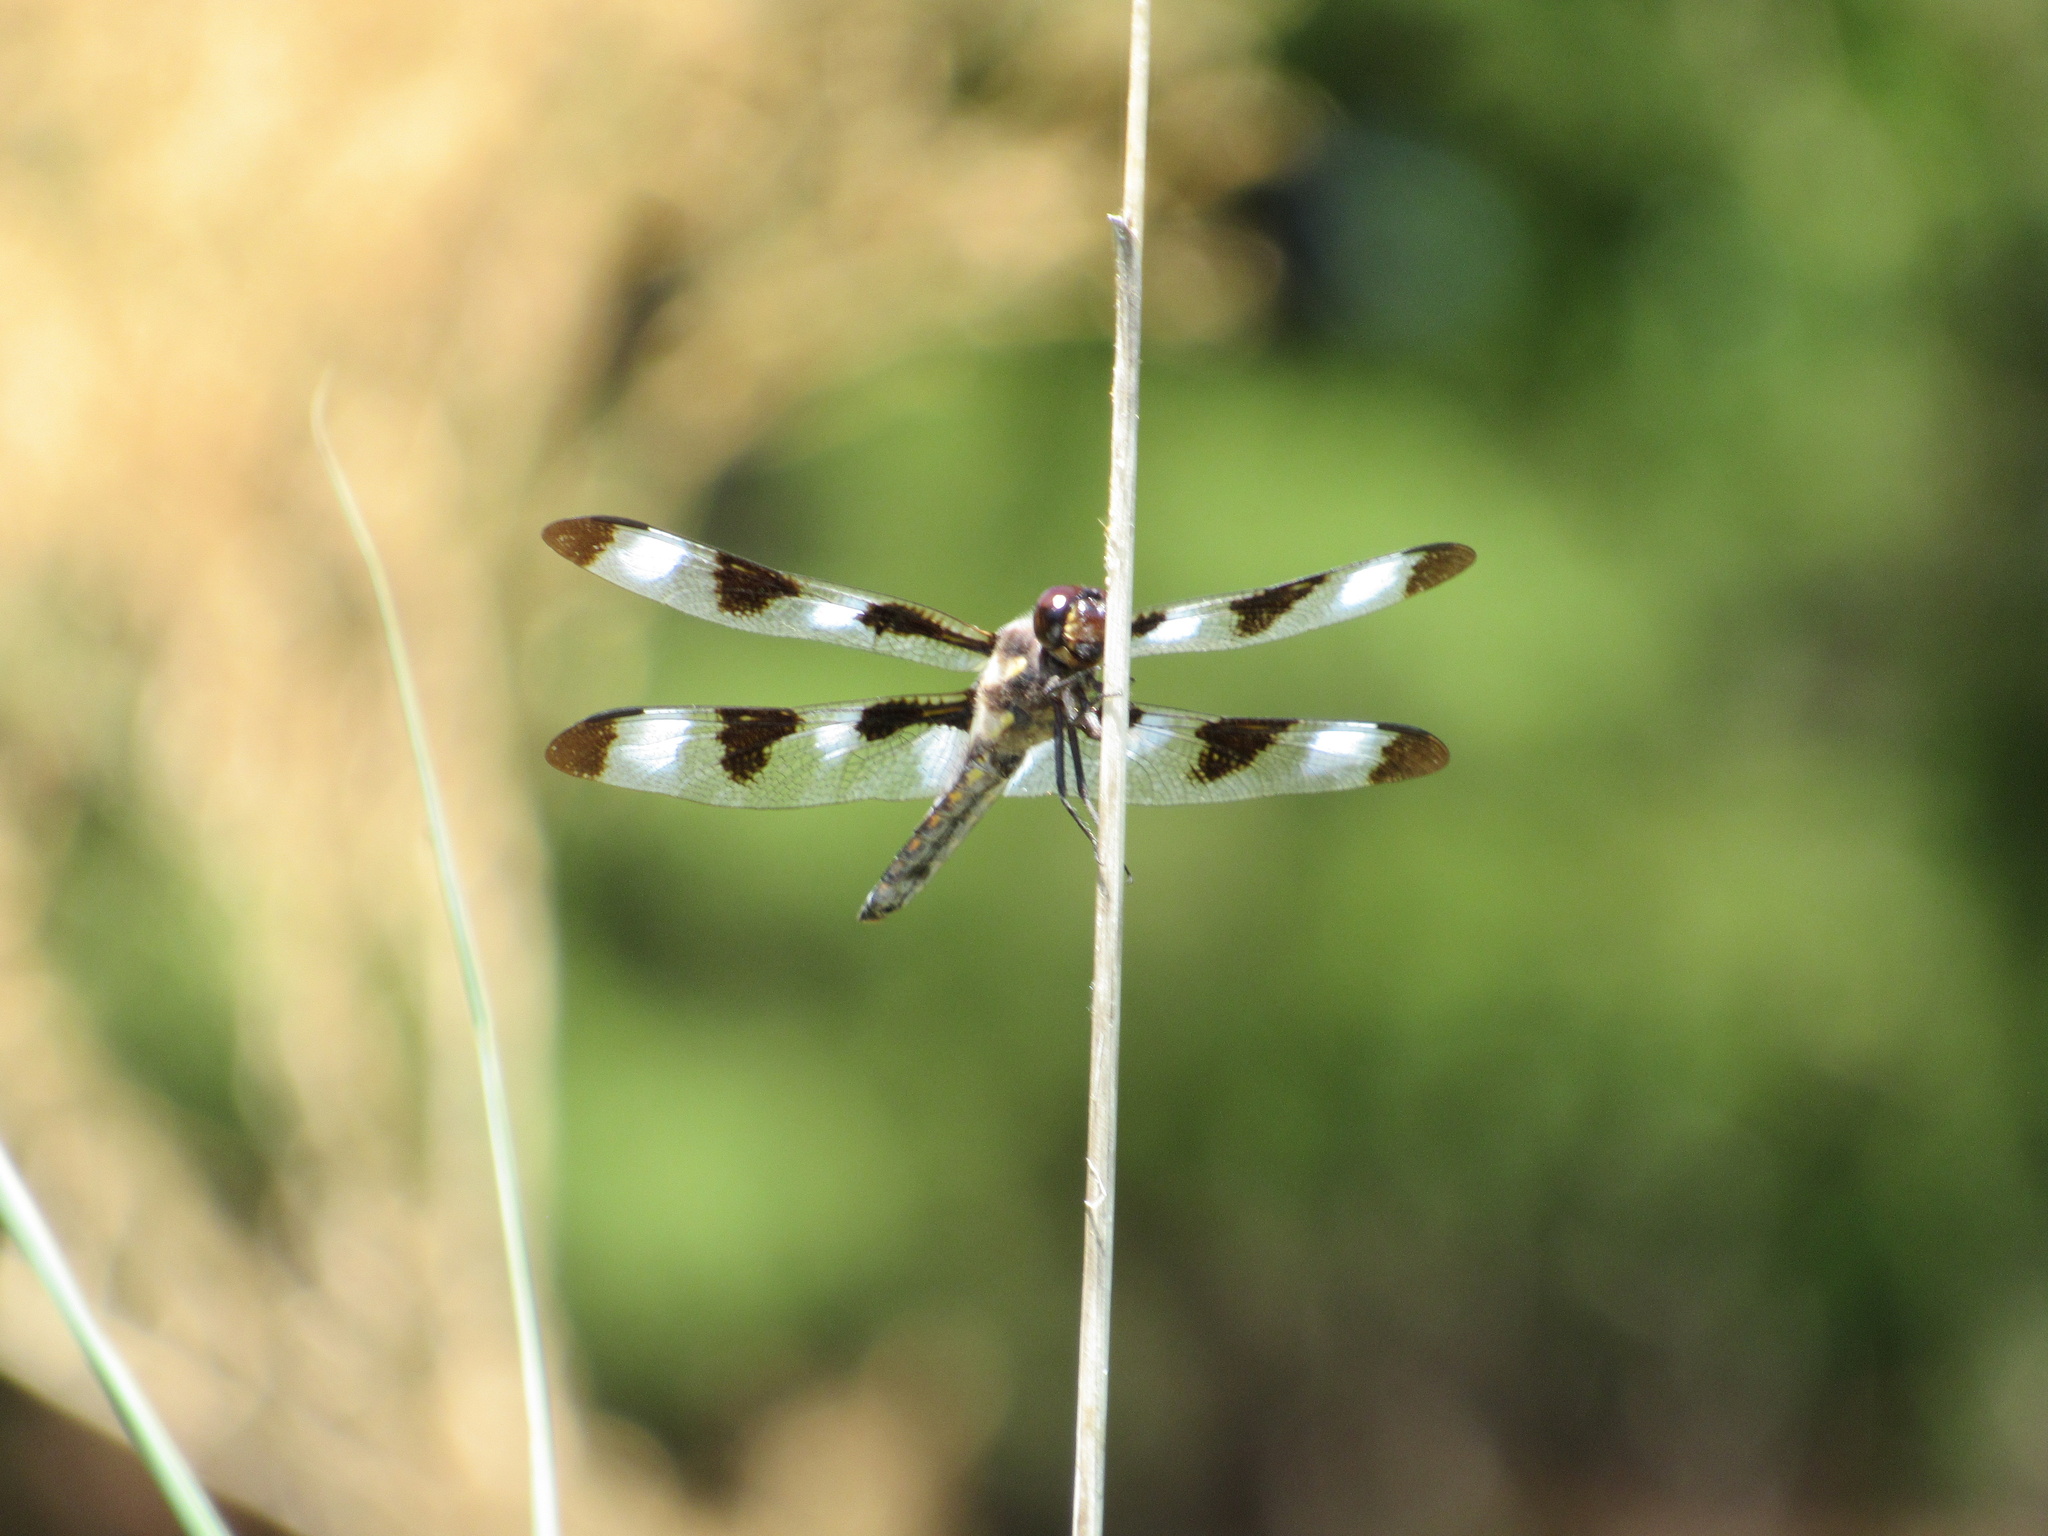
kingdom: Animalia
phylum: Arthropoda
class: Insecta
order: Odonata
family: Libellulidae
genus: Libellula
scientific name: Libellula pulchella
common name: Twelve-spotted skimmer
